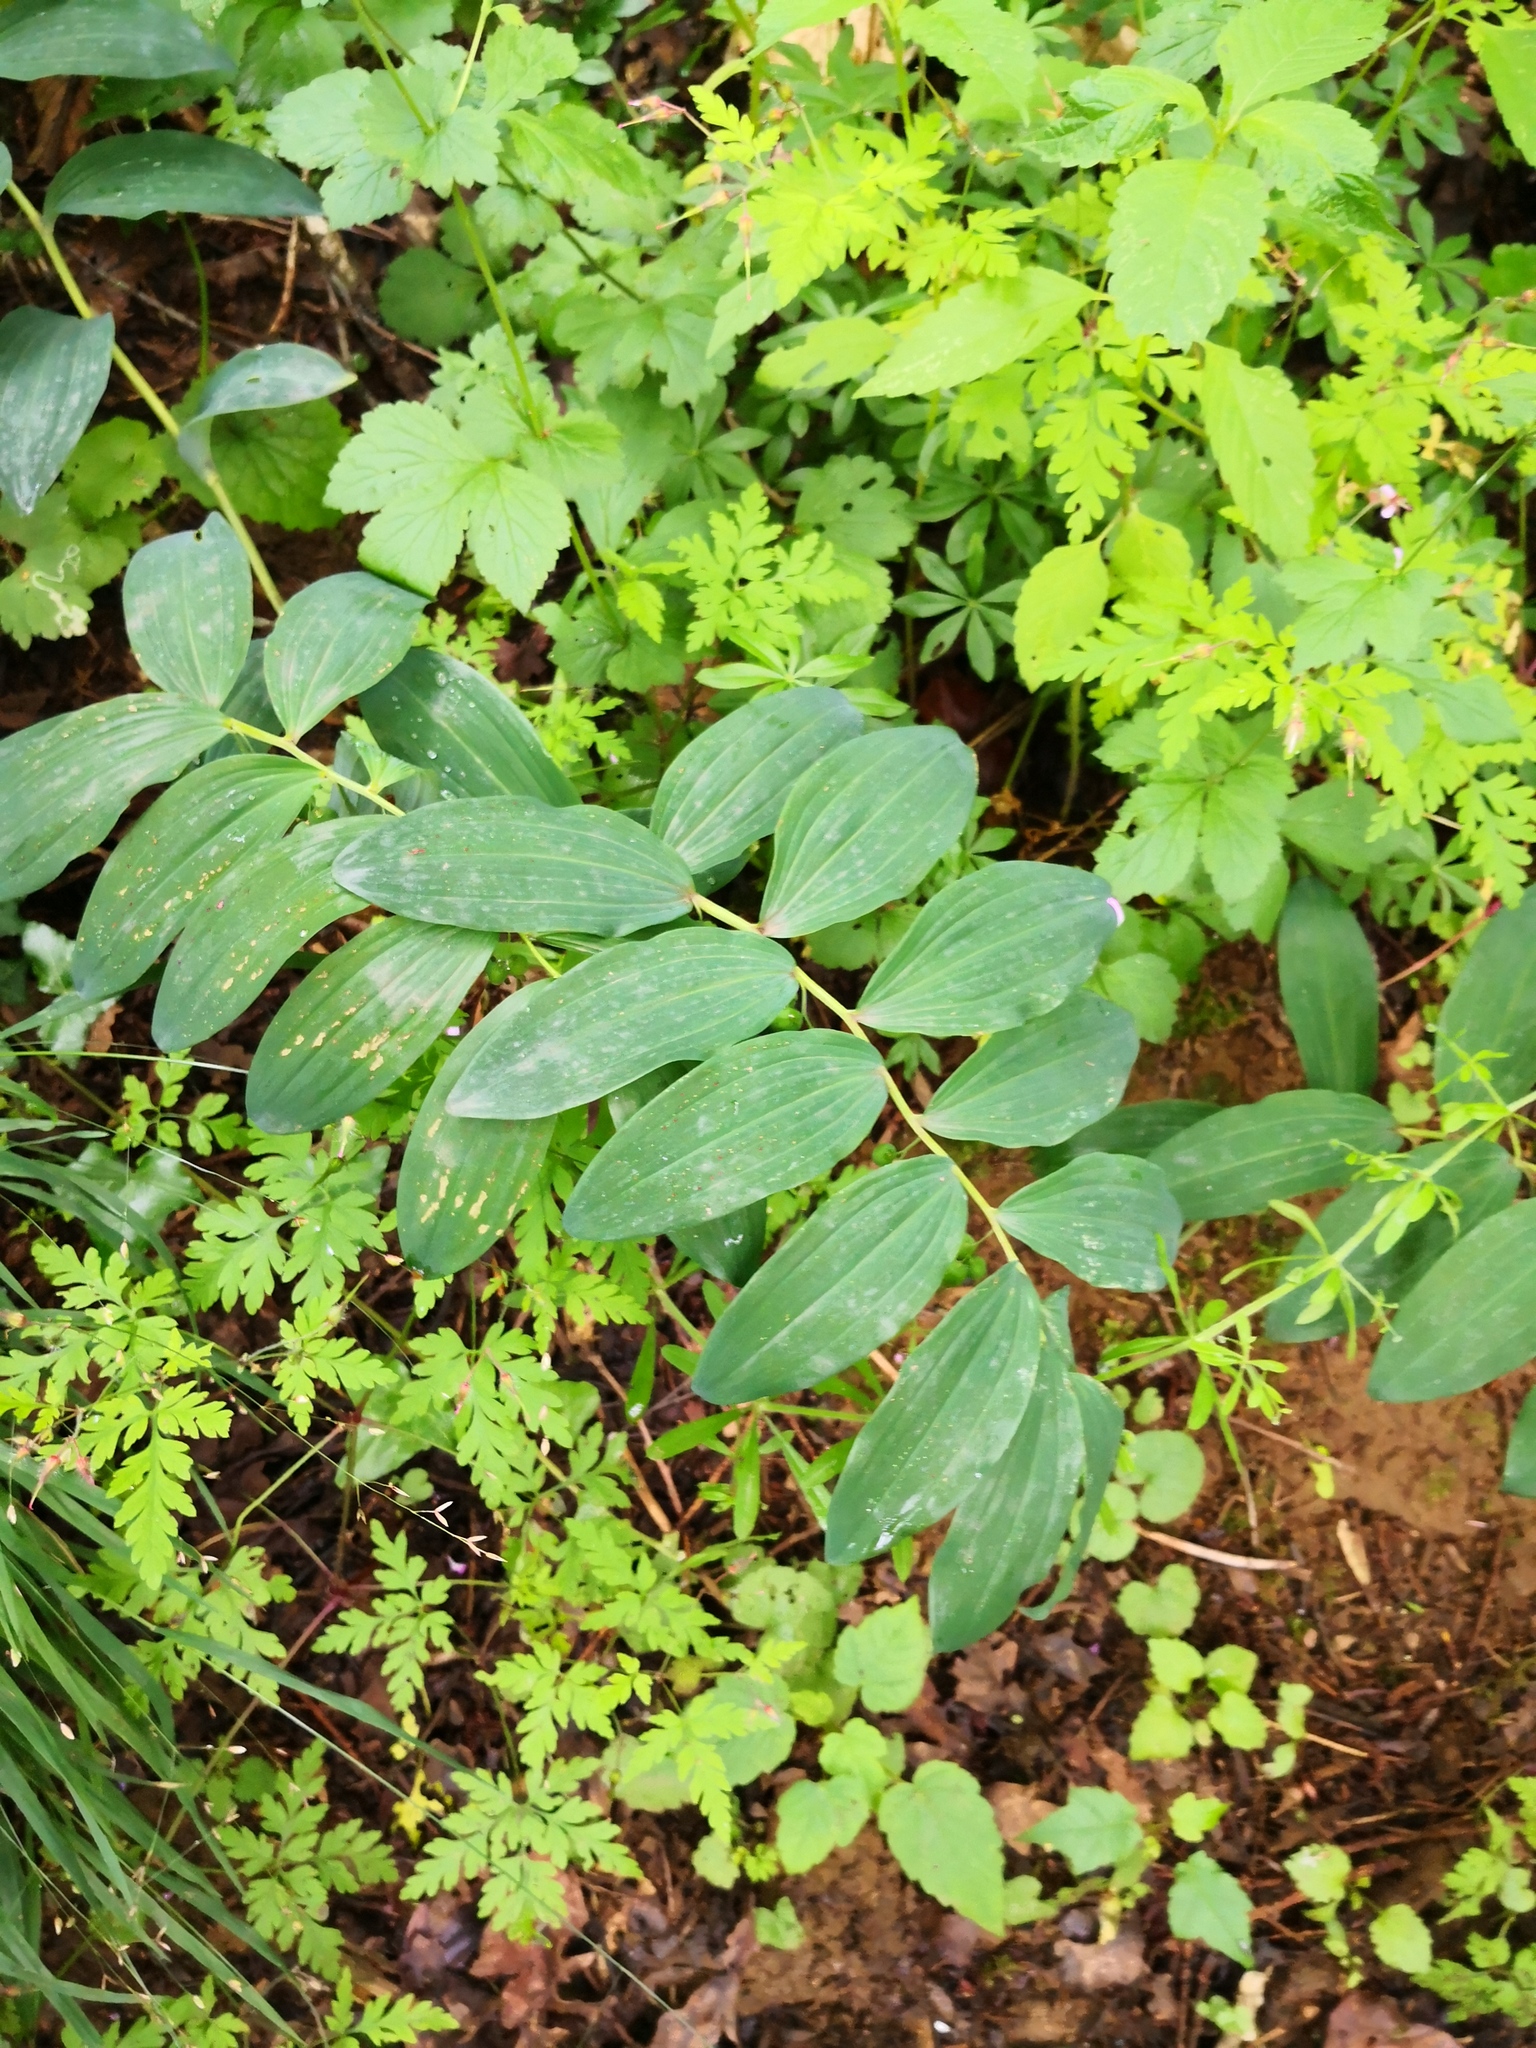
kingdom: Plantae
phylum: Tracheophyta
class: Liliopsida
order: Asparagales
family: Asparagaceae
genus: Polygonatum
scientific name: Polygonatum multiflorum
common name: Solomon's-seal
